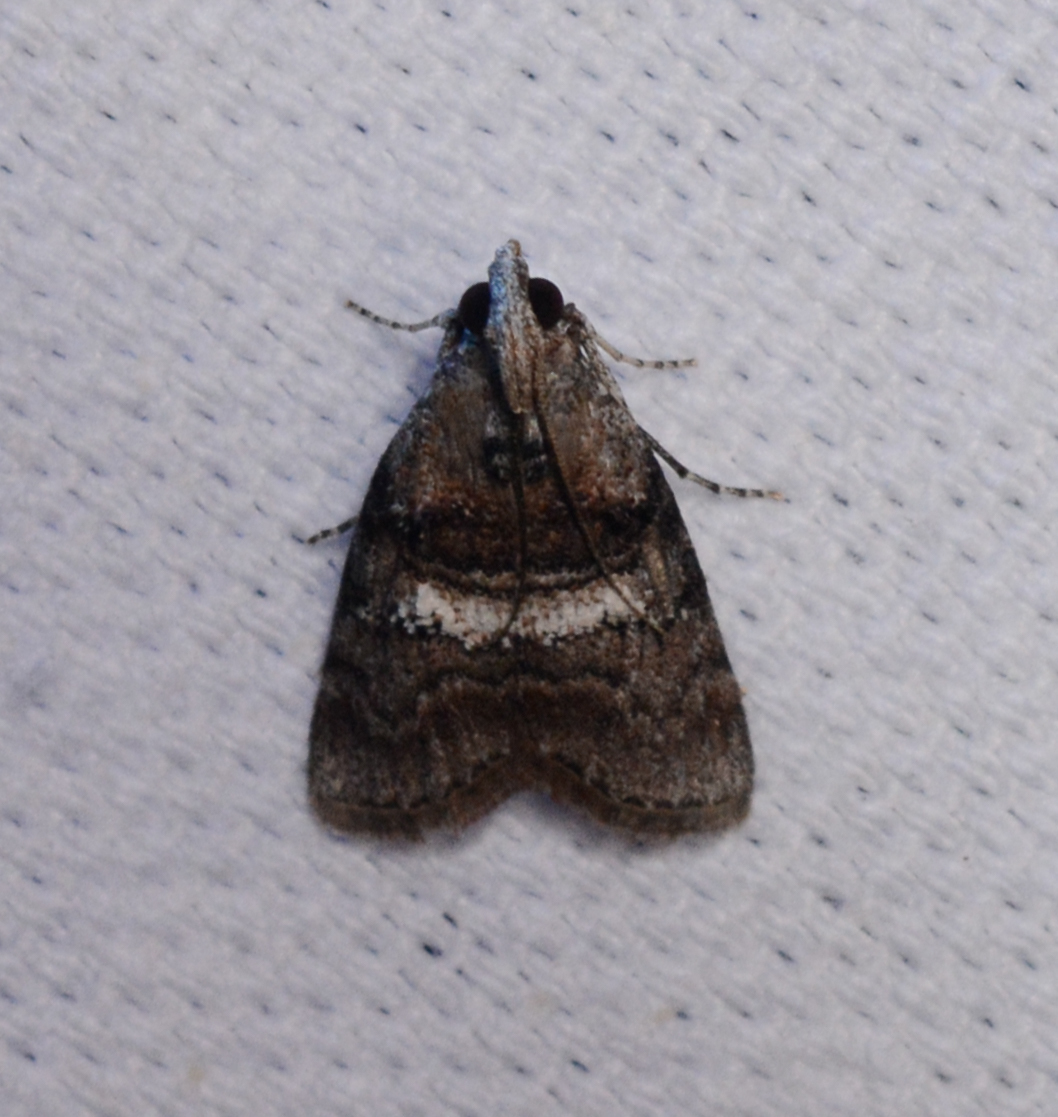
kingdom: Animalia
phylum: Arthropoda
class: Insecta
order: Lepidoptera
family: Pyralidae
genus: Pococera
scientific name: Pococera asperatella
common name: Maple webworm moth
